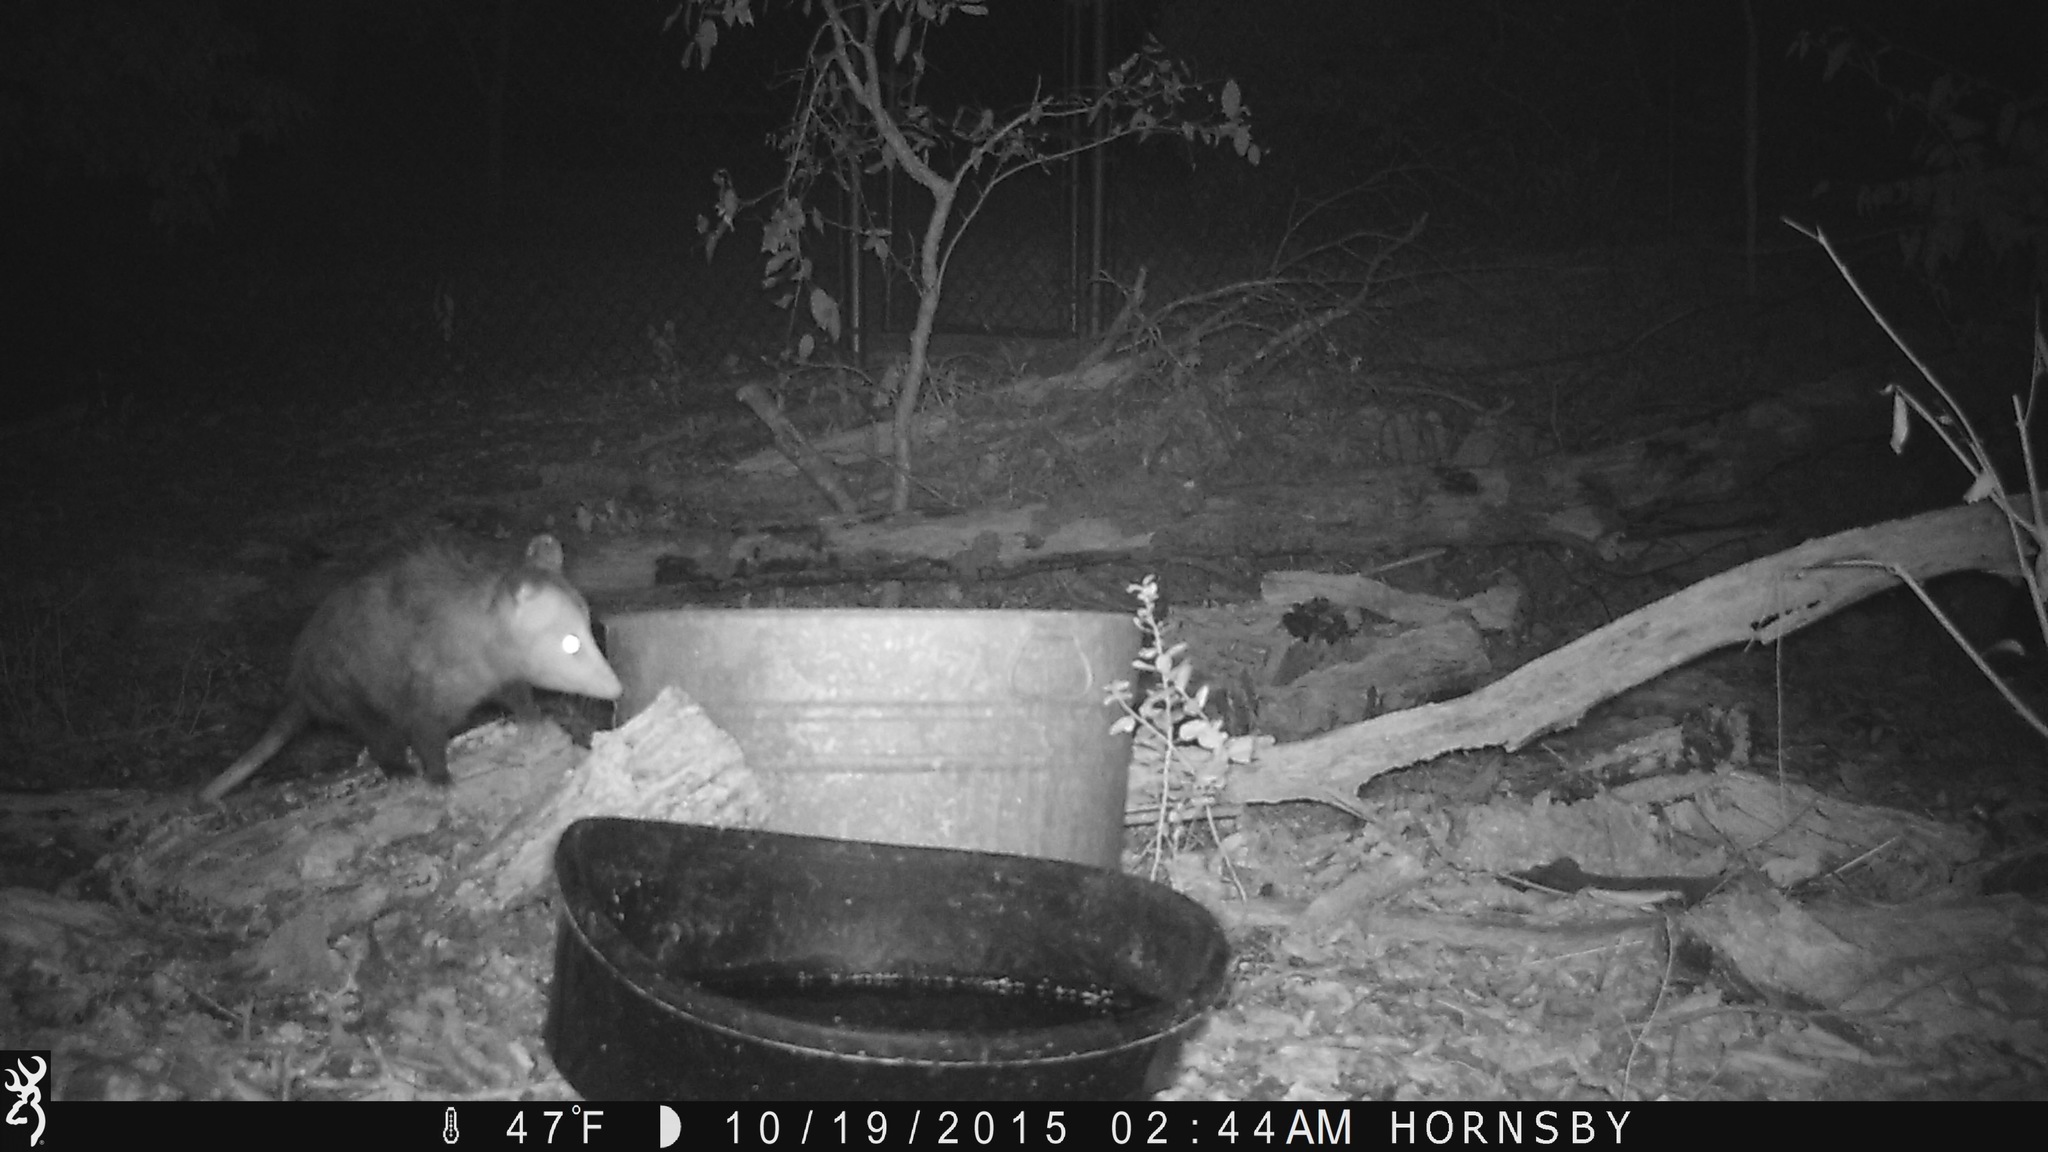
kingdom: Animalia
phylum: Chordata
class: Mammalia
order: Didelphimorphia
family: Didelphidae
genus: Didelphis
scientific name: Didelphis virginiana
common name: Virginia opossum
